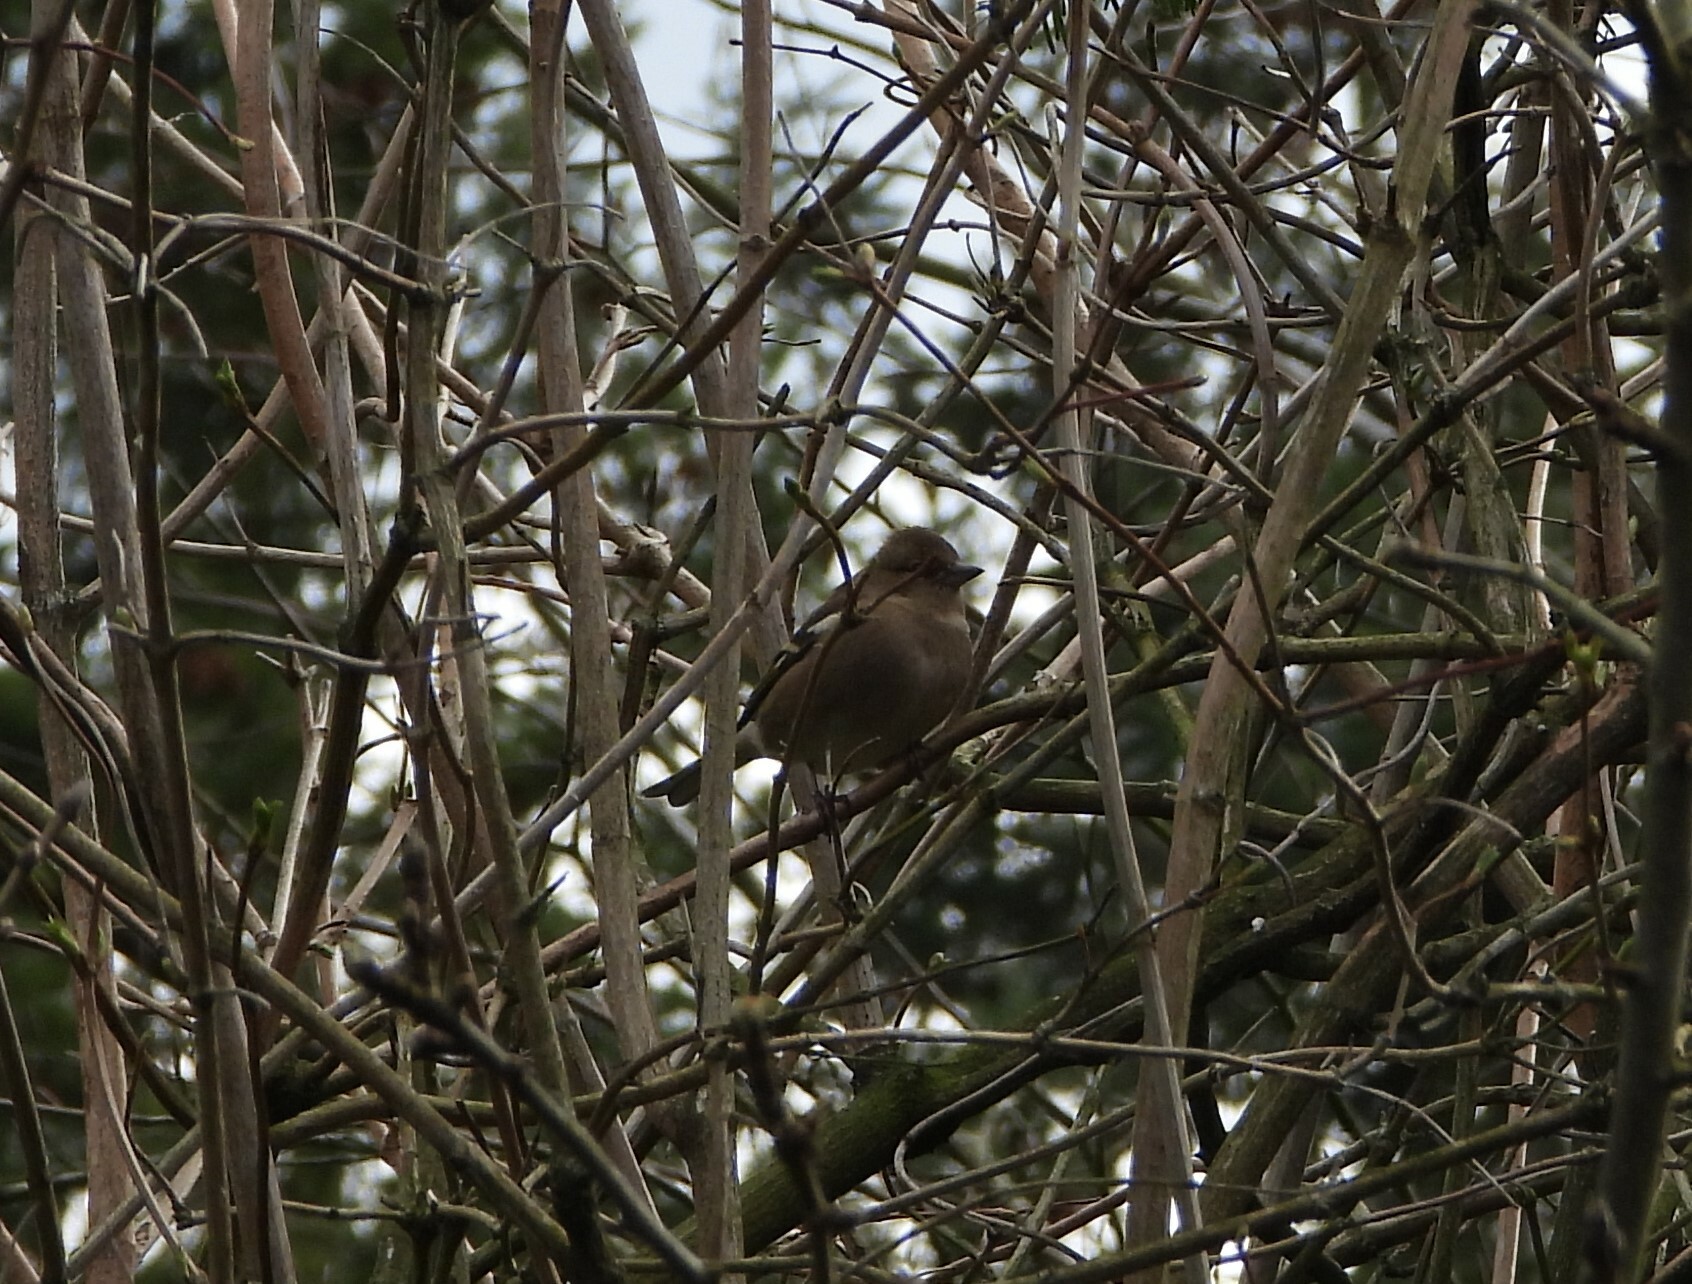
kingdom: Animalia
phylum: Chordata
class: Aves
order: Passeriformes
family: Fringillidae
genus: Fringilla
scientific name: Fringilla coelebs
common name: Common chaffinch
